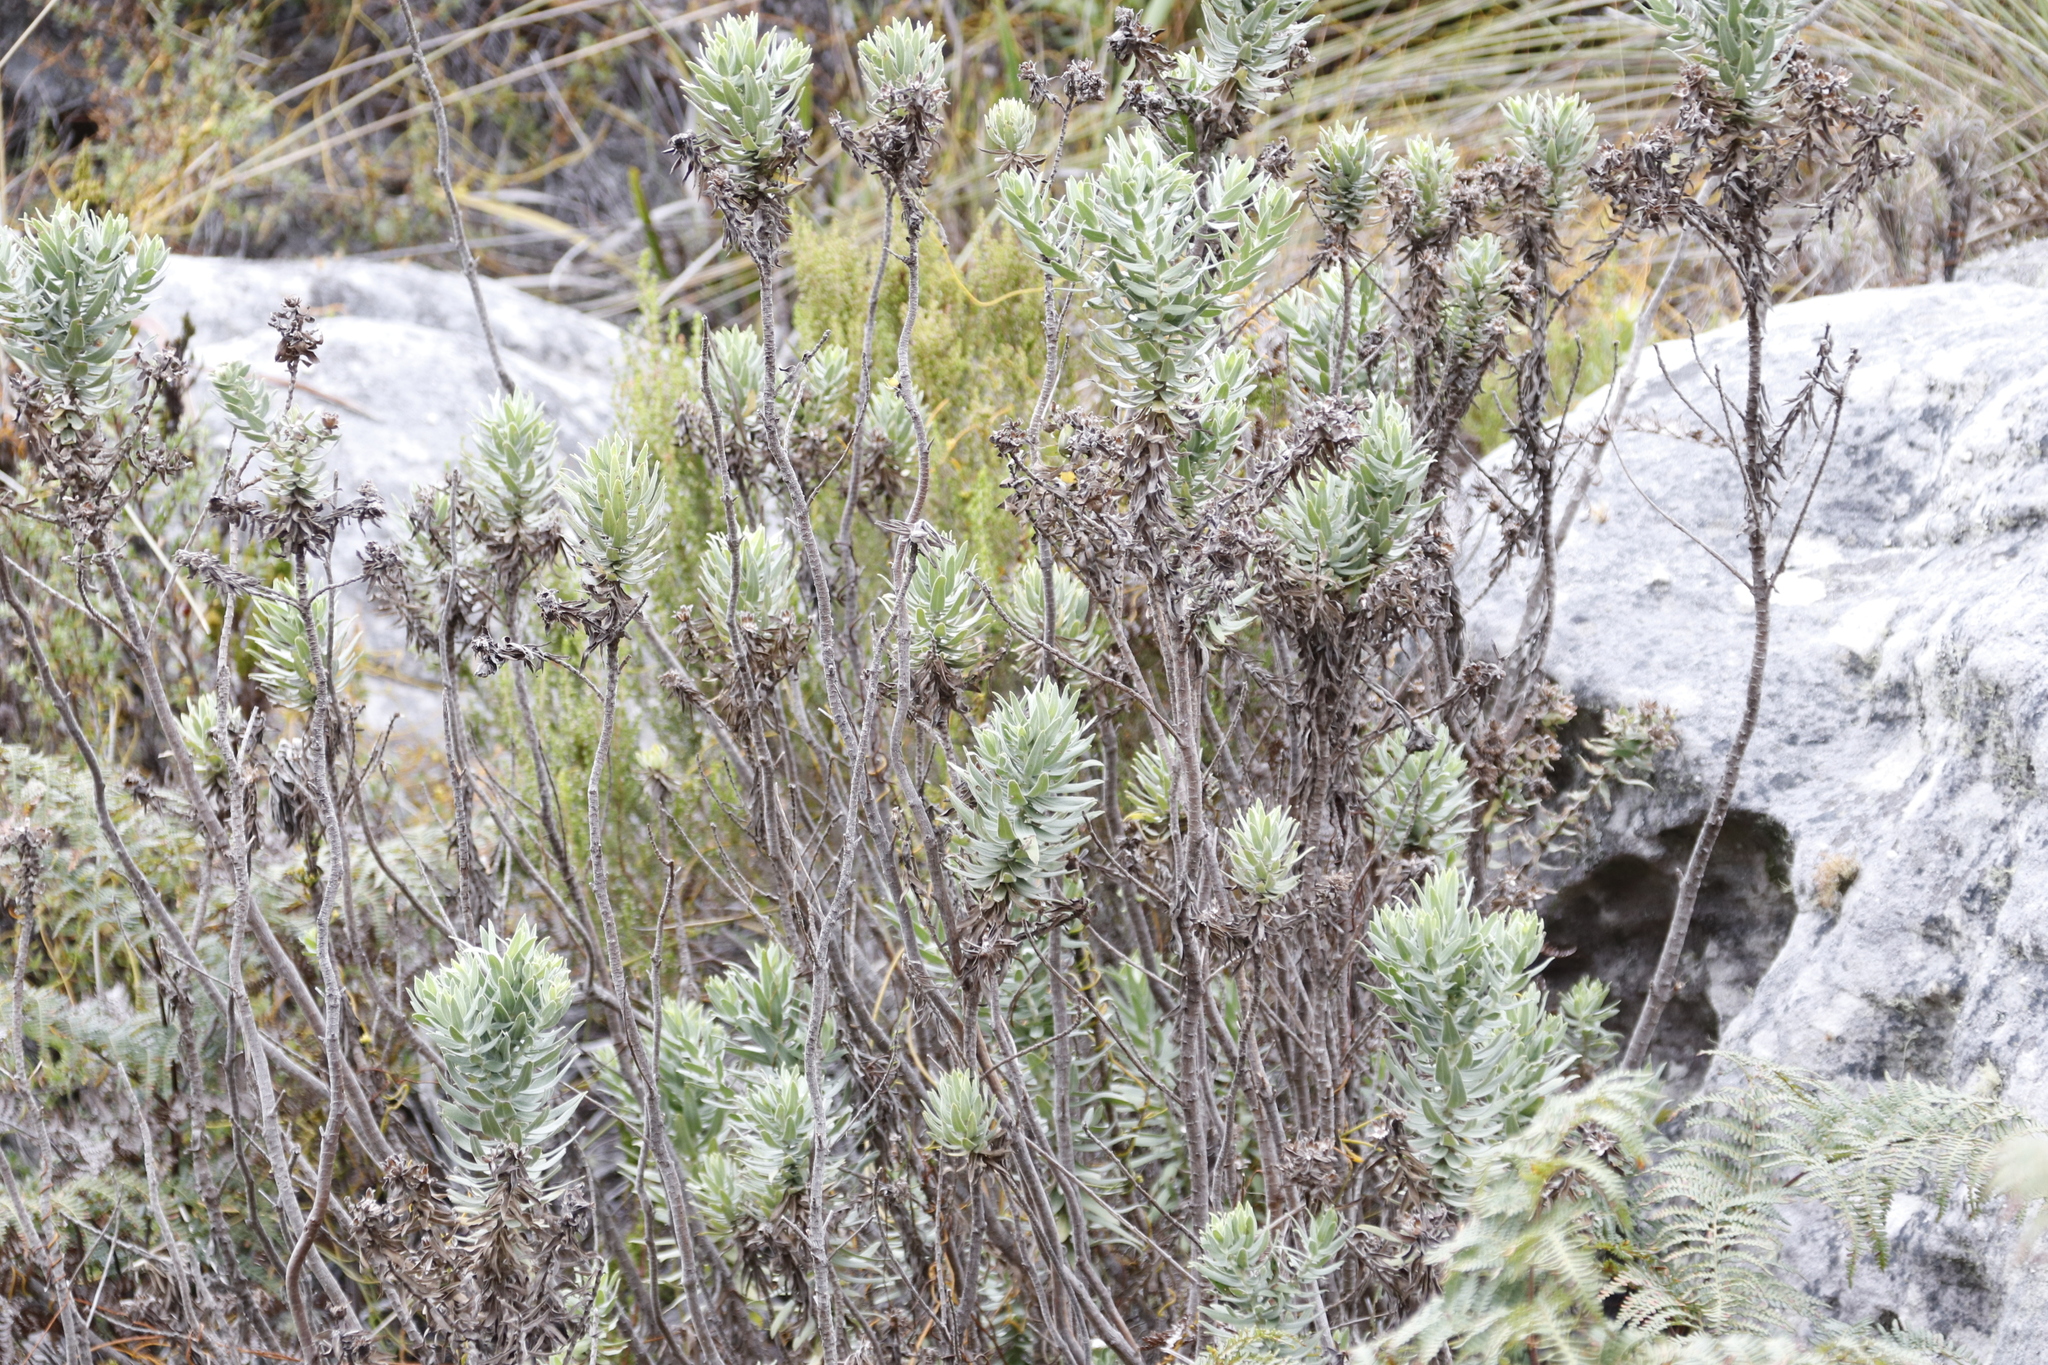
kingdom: Plantae
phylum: Tracheophyta
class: Magnoliopsida
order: Asterales
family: Asteraceae
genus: Osmitopsis
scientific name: Osmitopsis asteriscoides
